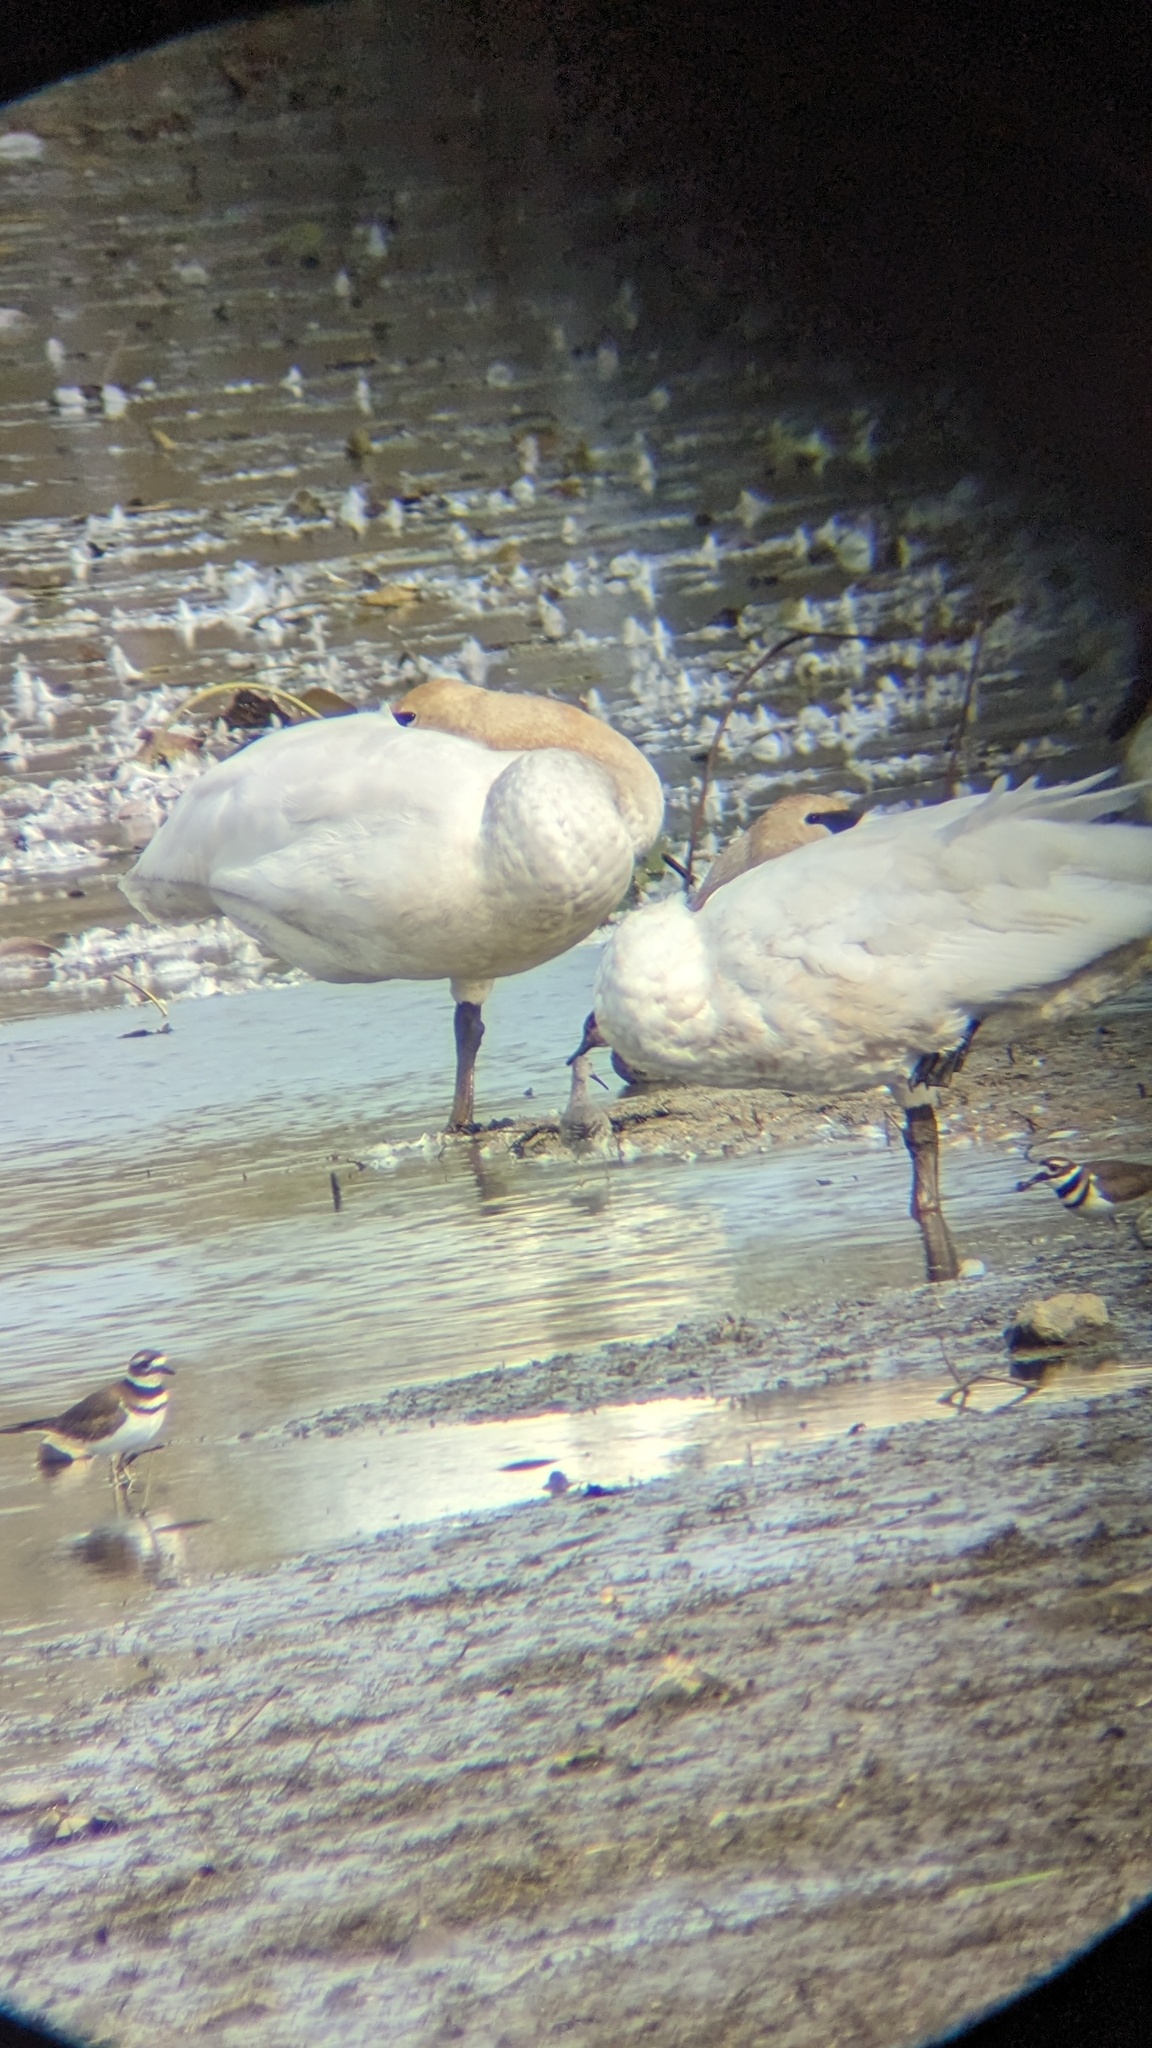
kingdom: Animalia
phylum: Chordata
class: Aves
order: Anseriformes
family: Anatidae
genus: Cygnus
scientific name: Cygnus buccinator
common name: Trumpeter swan
